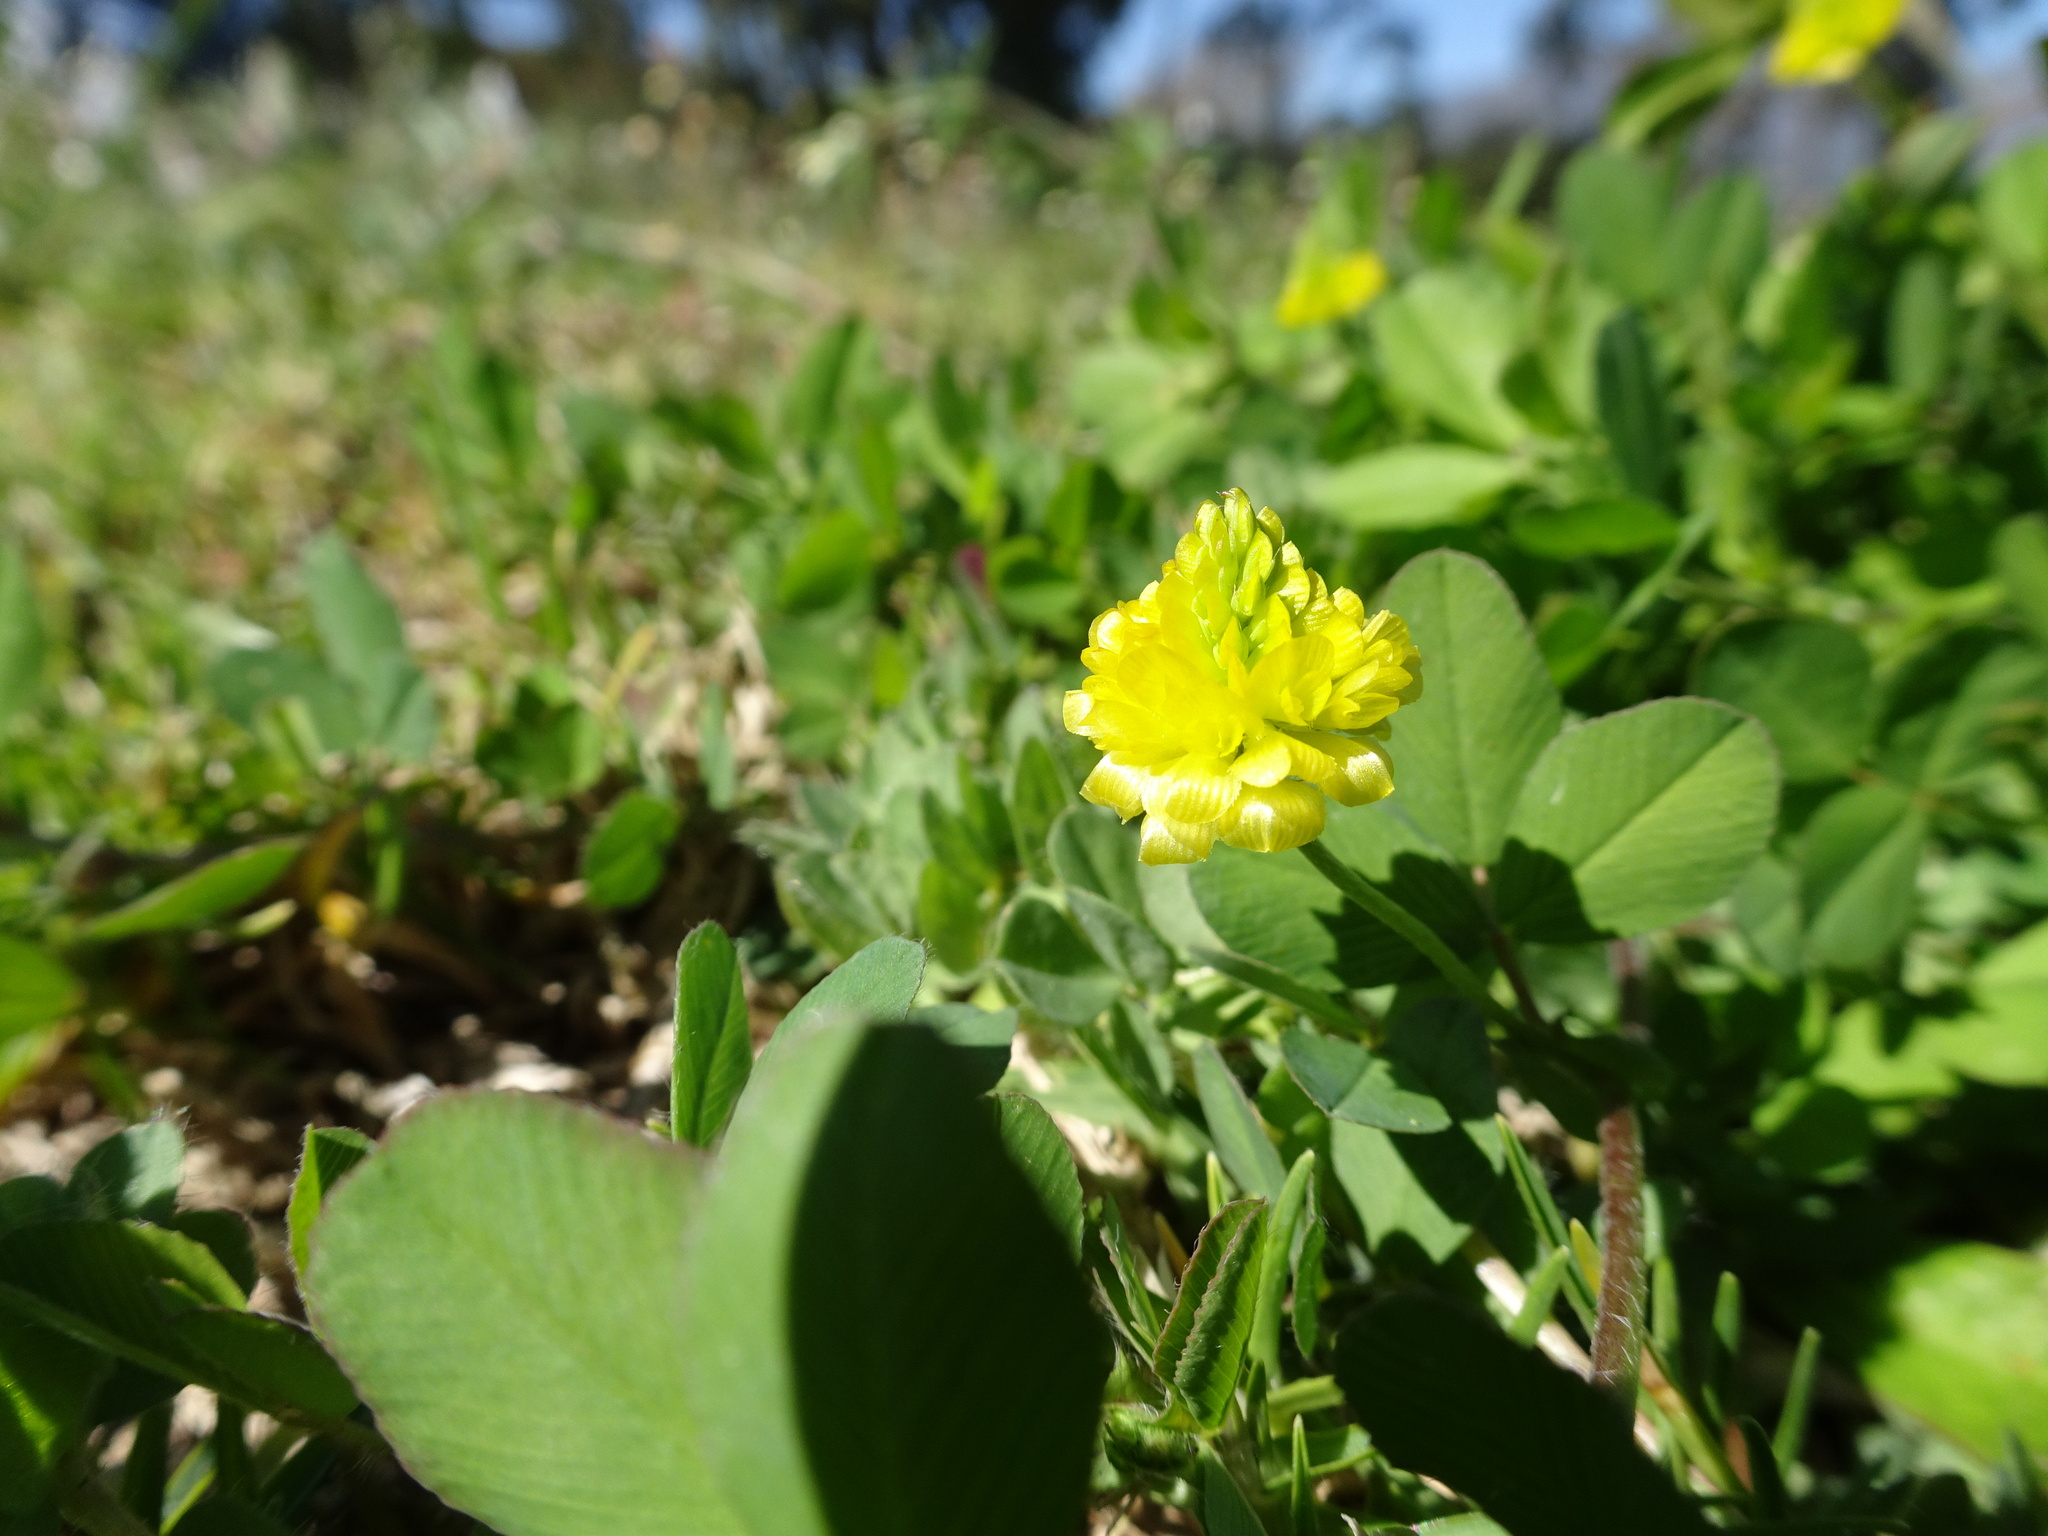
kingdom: Plantae
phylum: Tracheophyta
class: Magnoliopsida
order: Fabales
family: Fabaceae
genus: Trifolium
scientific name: Trifolium campestre
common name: Field clover
